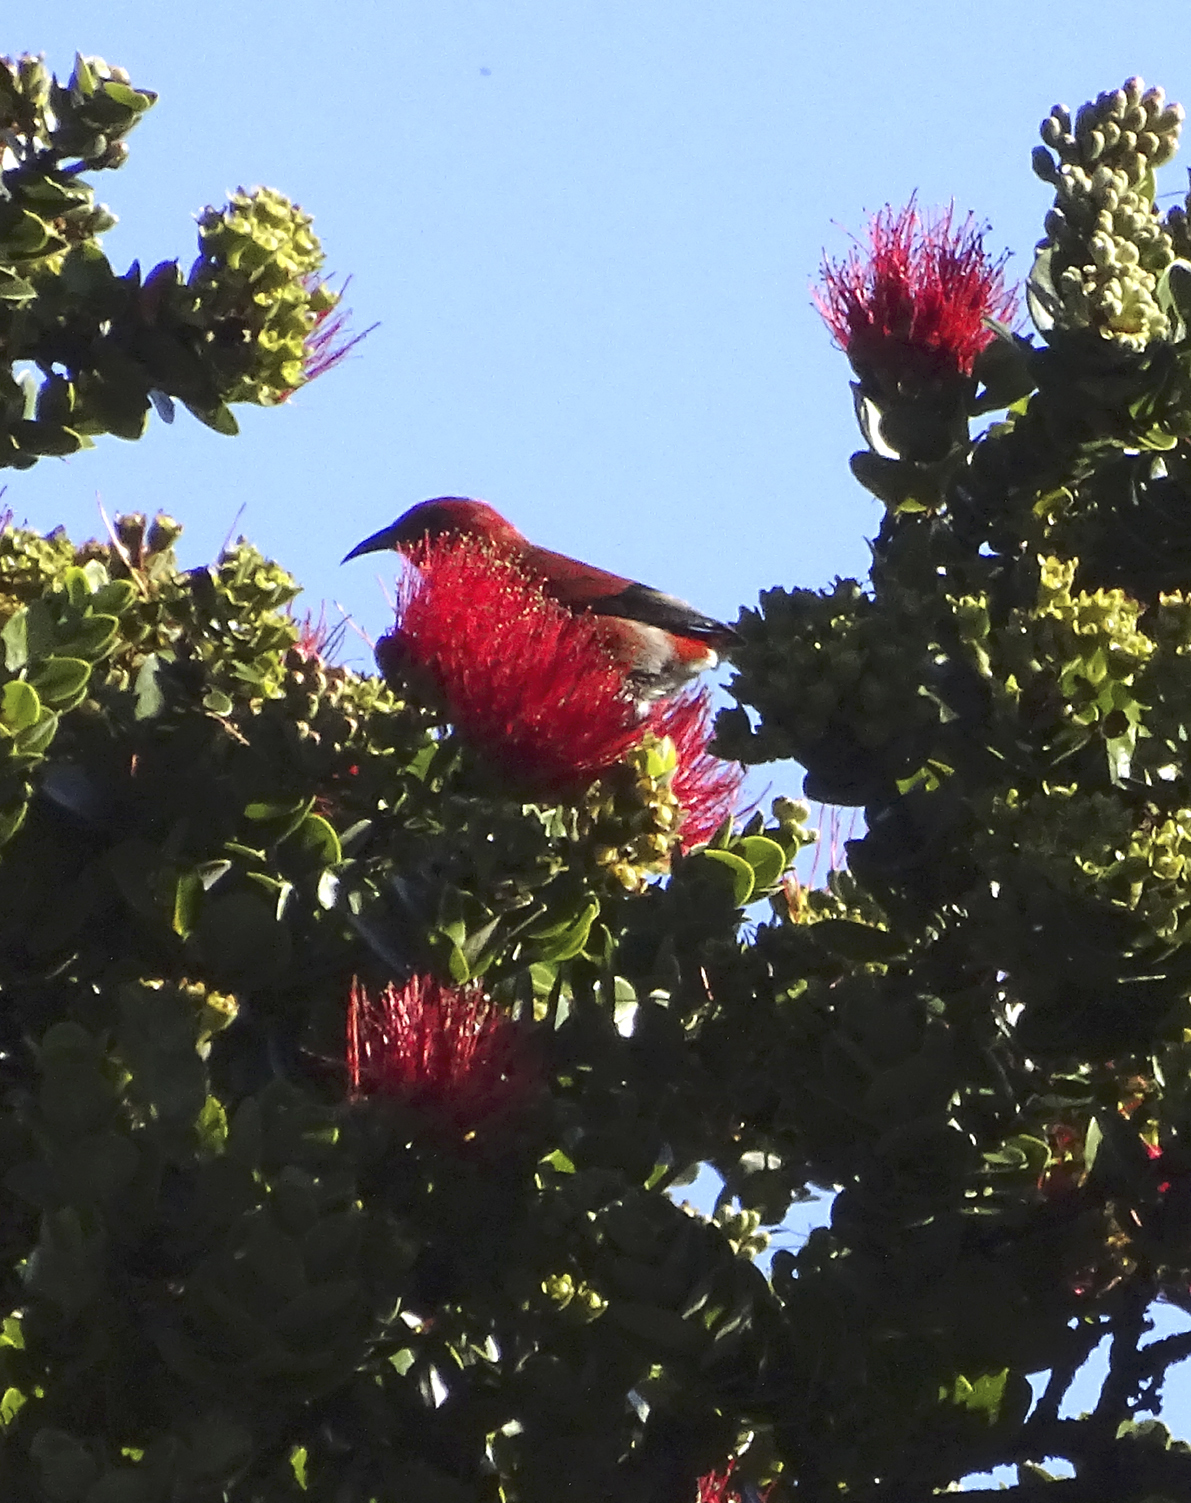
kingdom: Animalia
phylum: Chordata
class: Aves
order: Passeriformes
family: Fringillidae
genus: Himatione
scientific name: Himatione sanguinea
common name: Apapane
